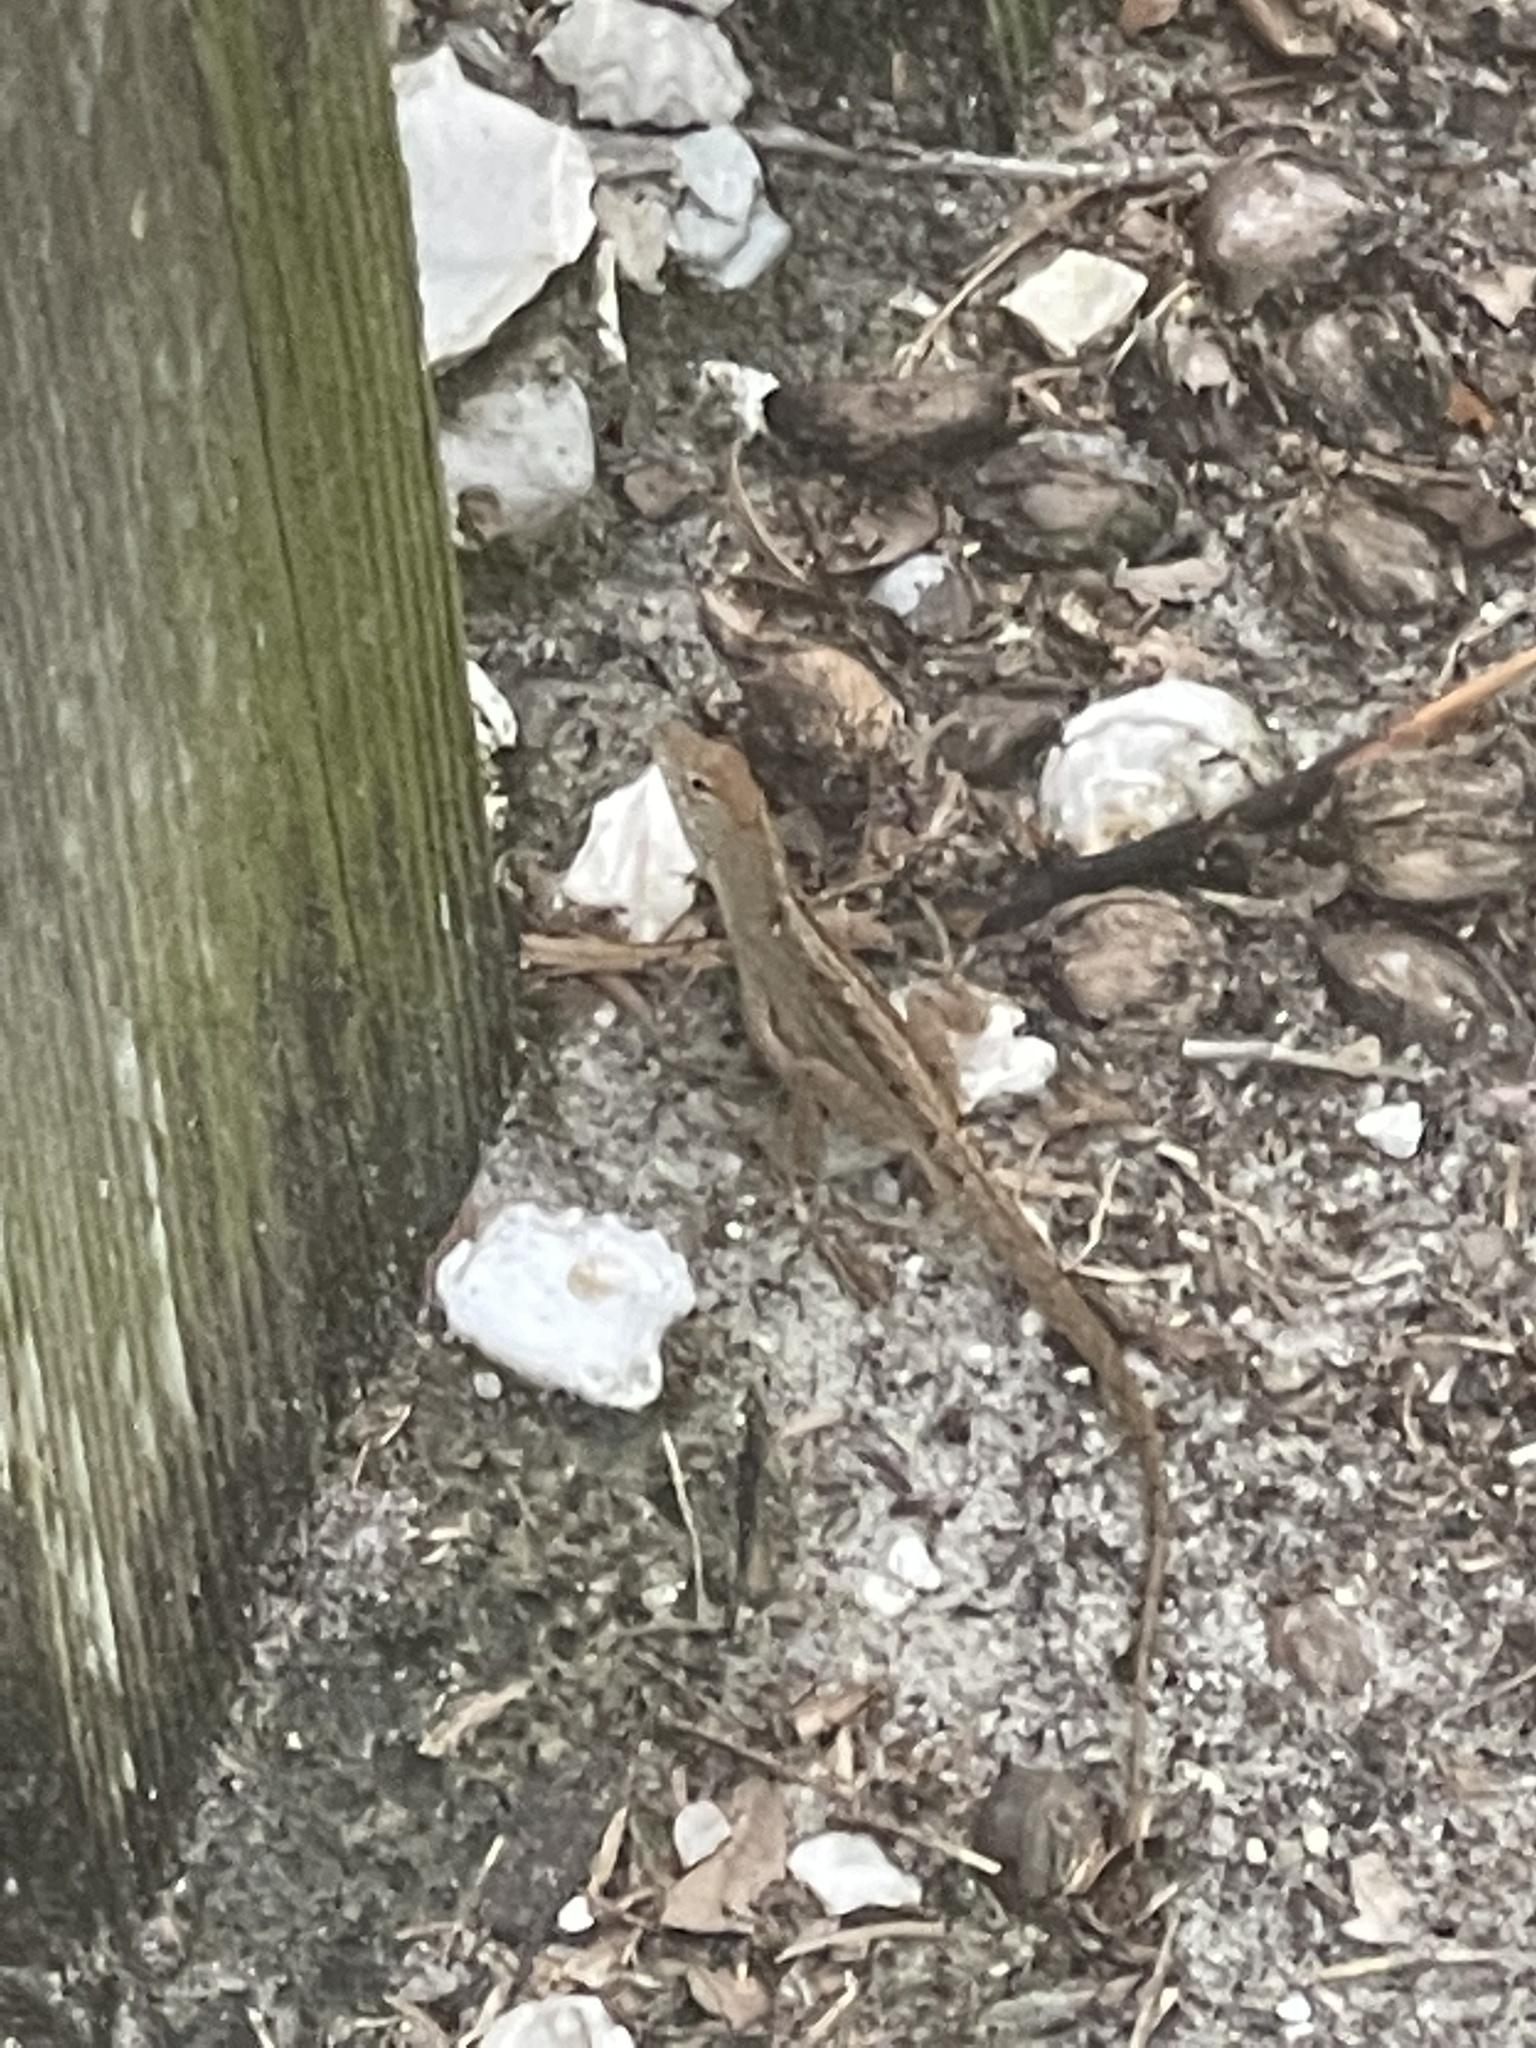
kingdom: Animalia
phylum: Chordata
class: Squamata
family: Dactyloidae
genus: Anolis
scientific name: Anolis sagrei
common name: Brown anole
